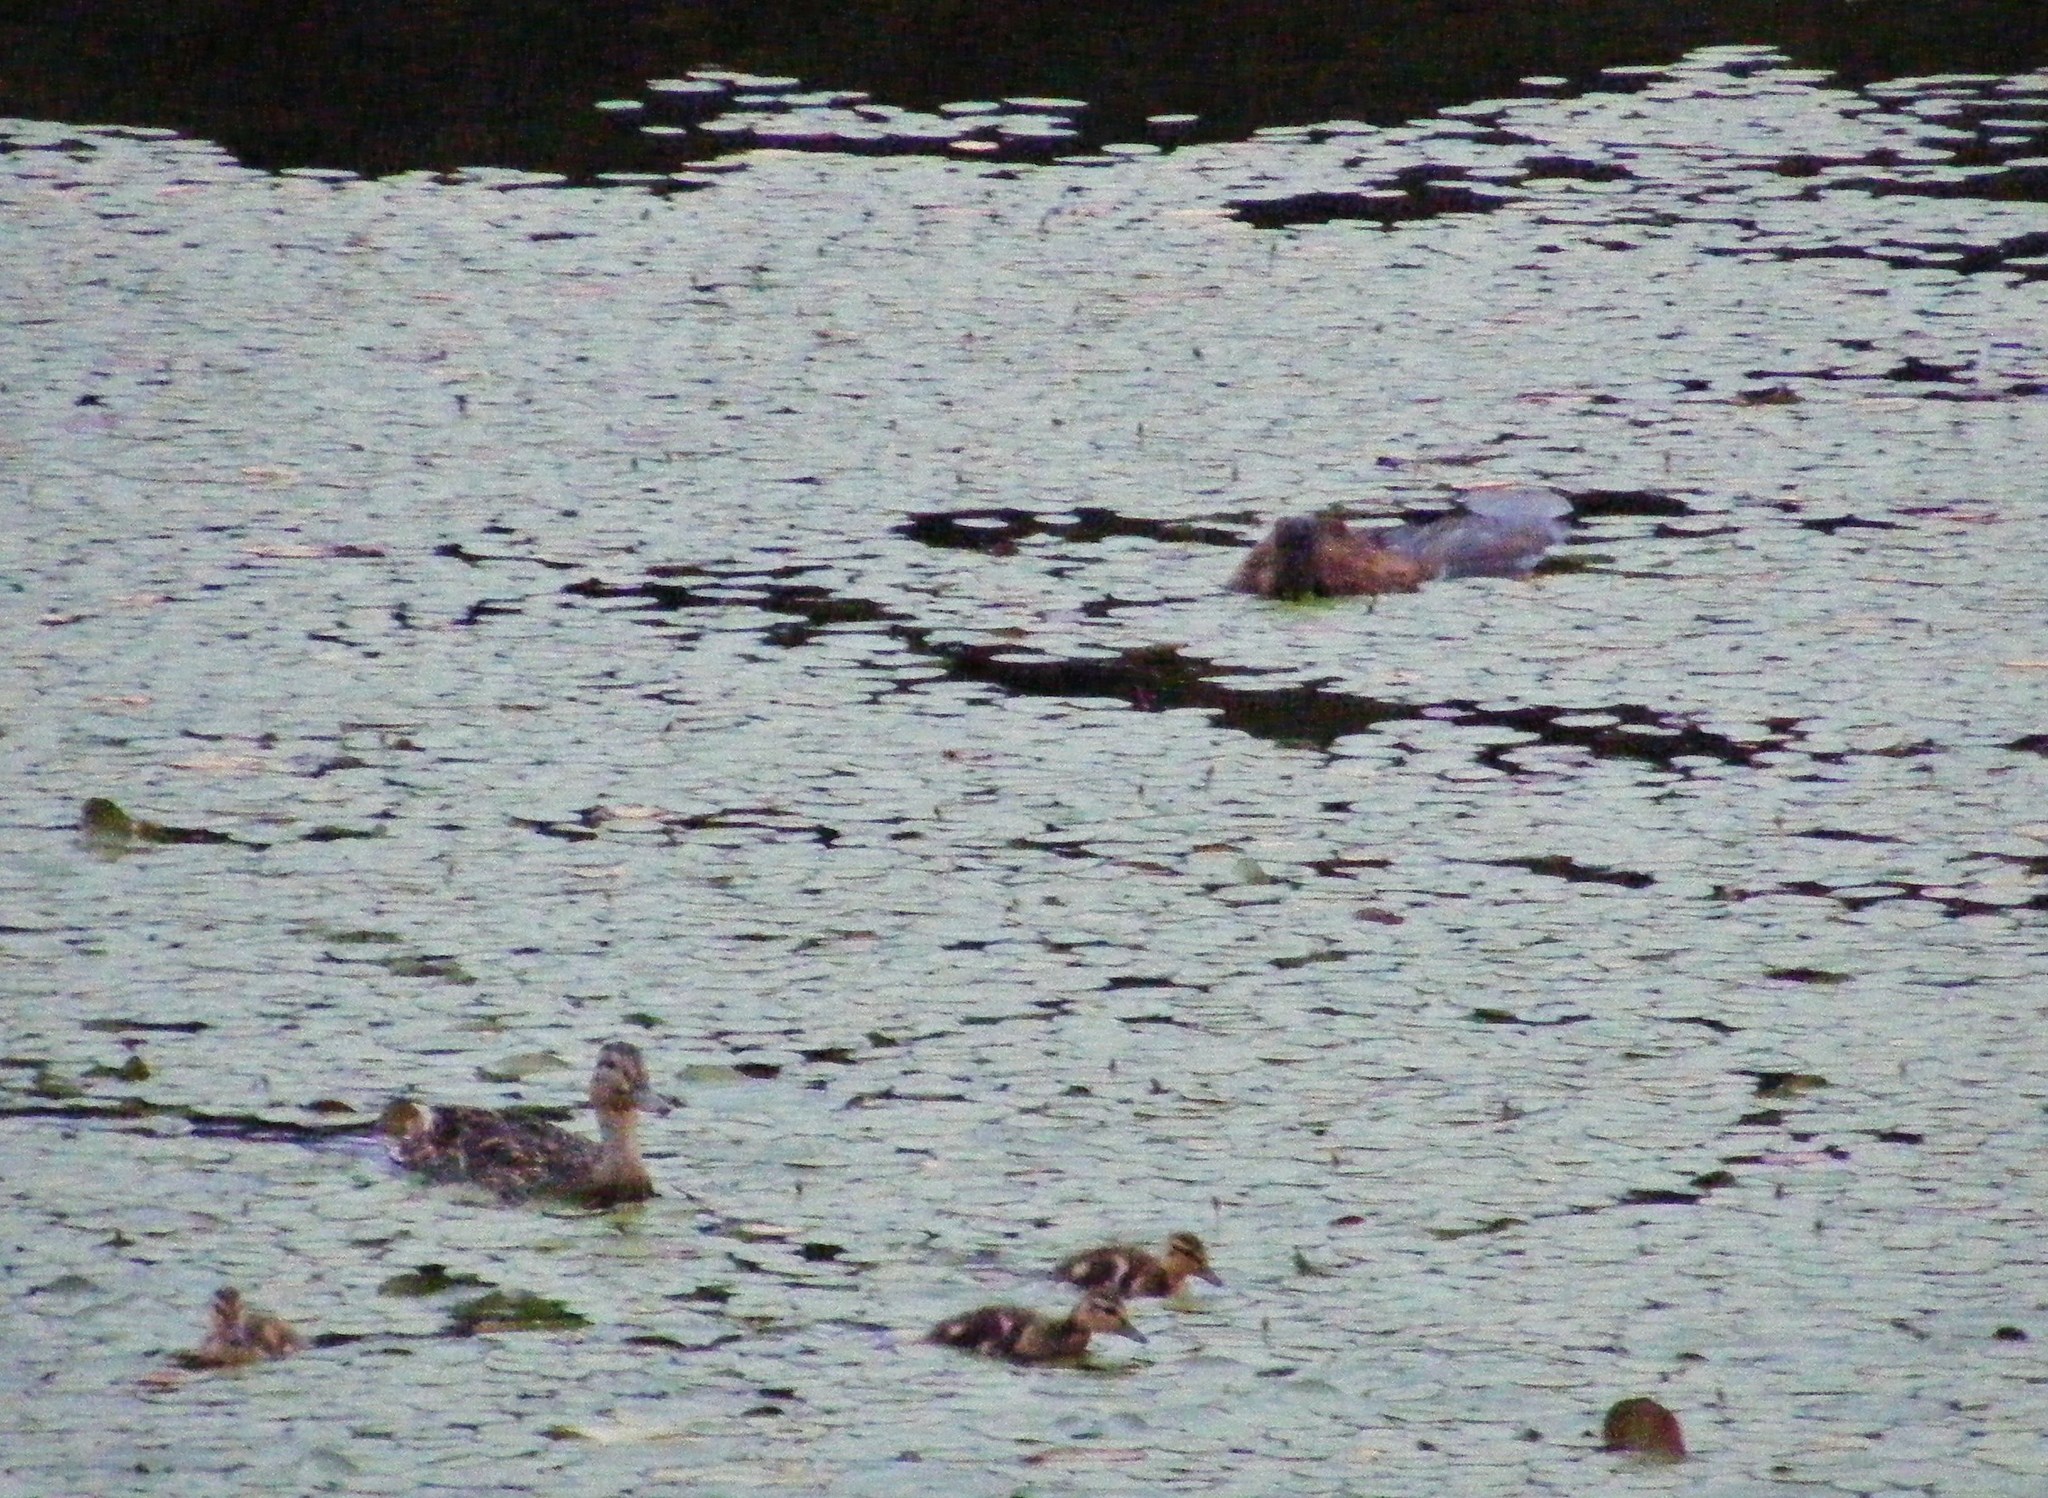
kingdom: Animalia
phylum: Chordata
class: Mammalia
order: Rodentia
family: Castoridae
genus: Castor
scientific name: Castor canadensis
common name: American beaver
